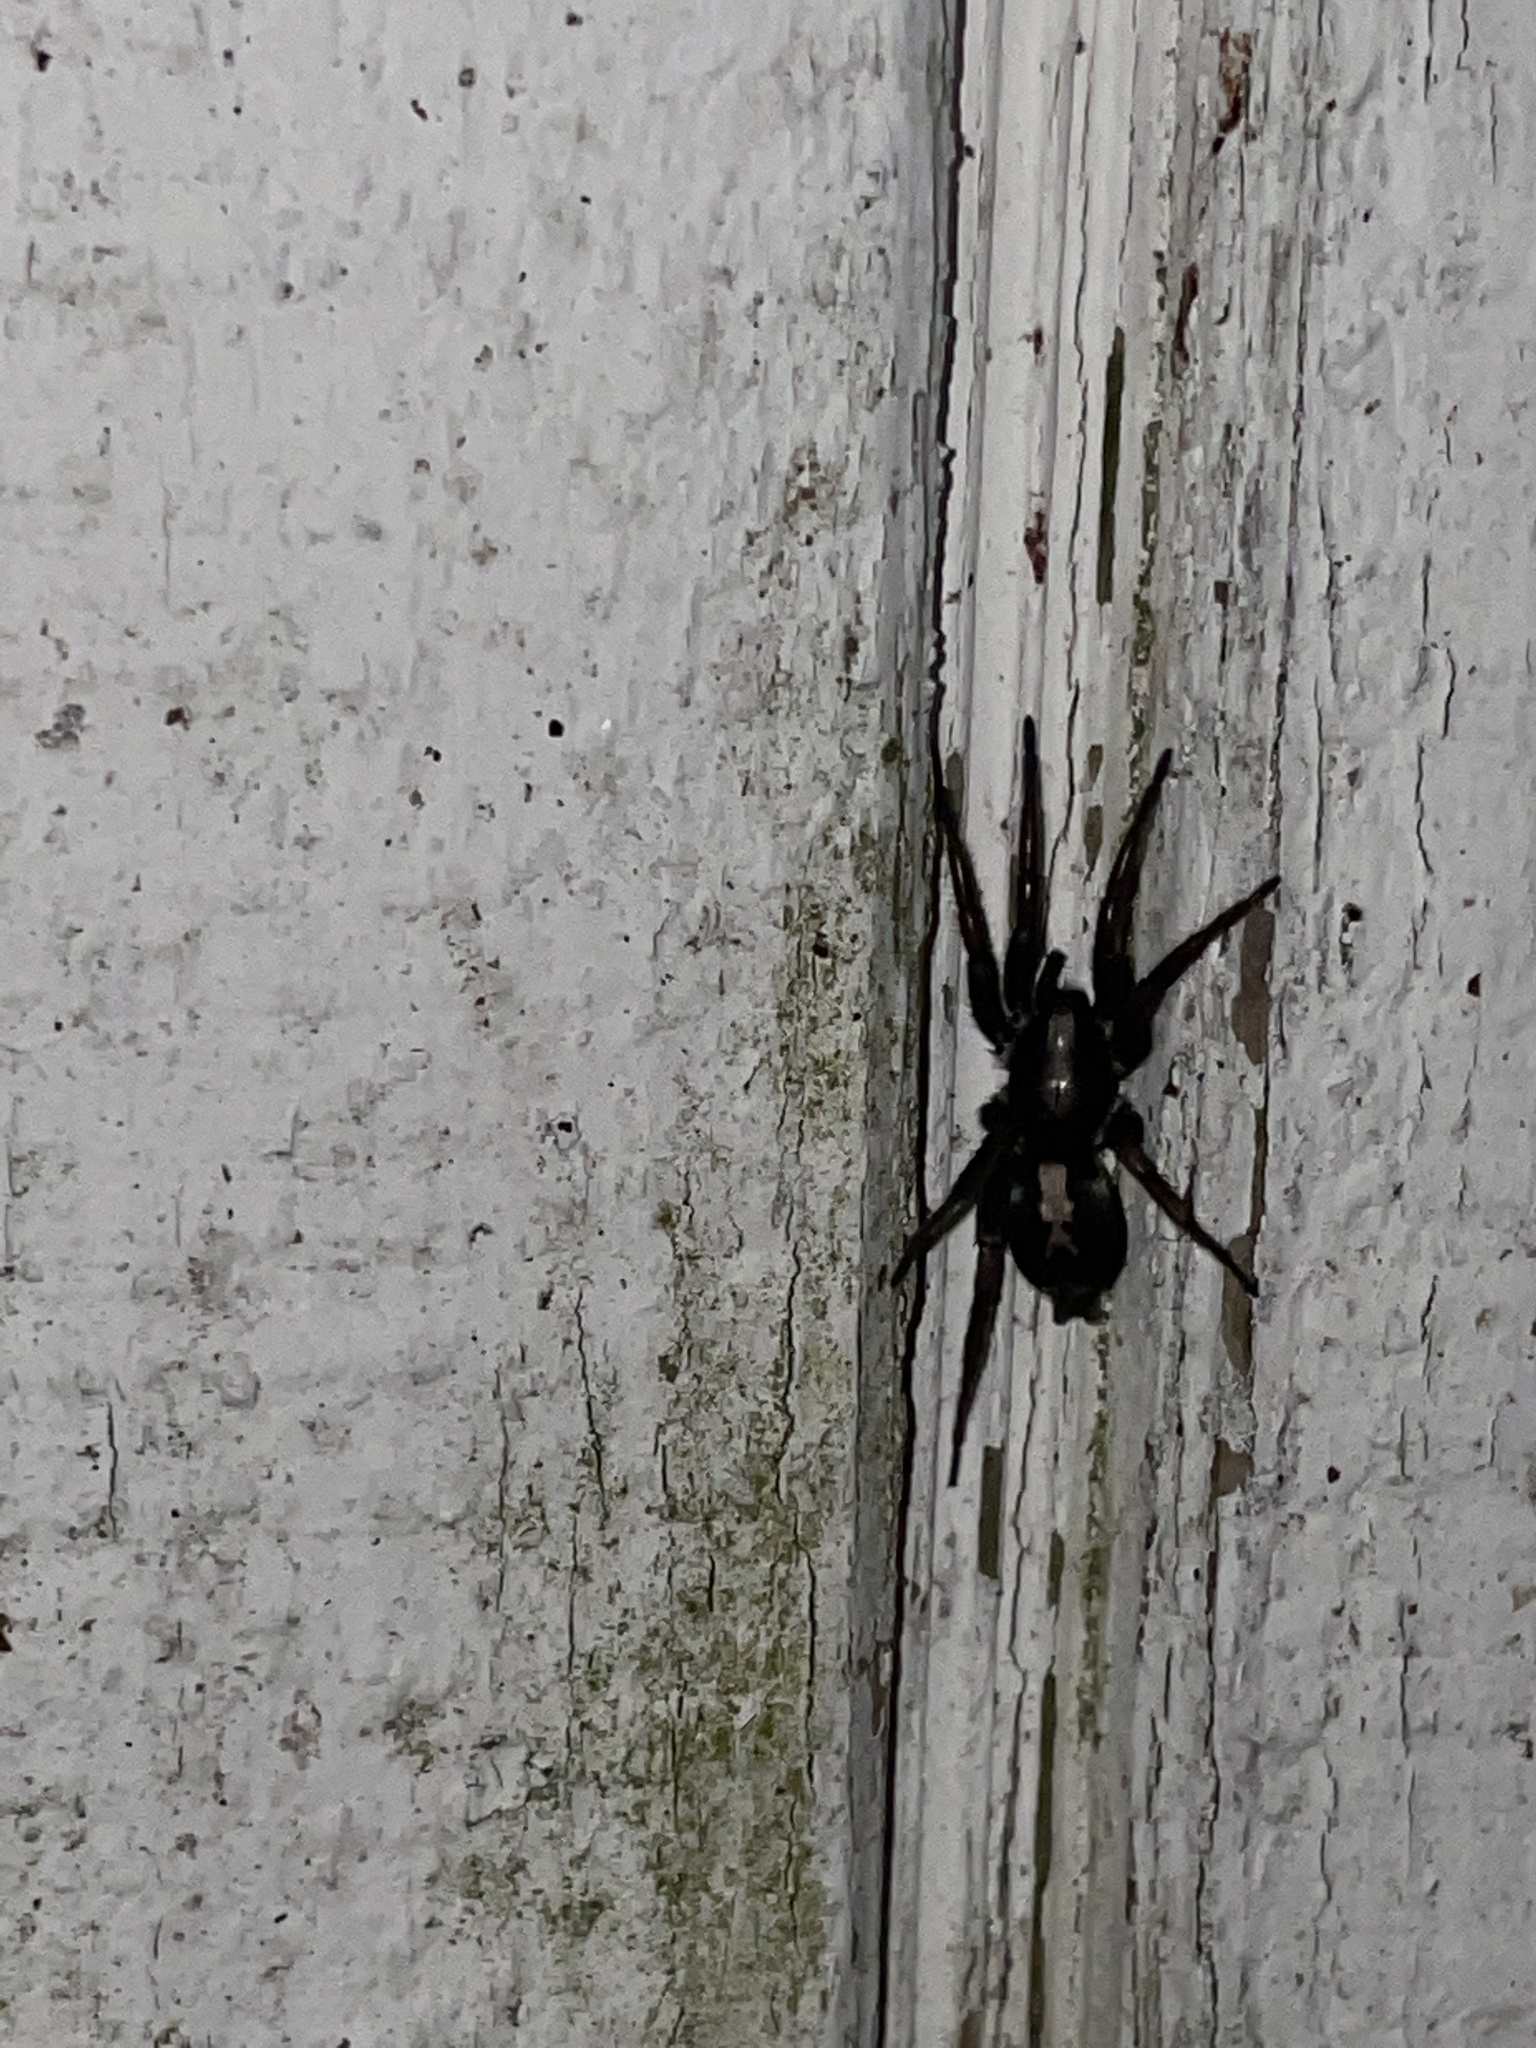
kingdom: Animalia
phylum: Arthropoda
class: Arachnida
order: Araneae
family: Gnaphosidae
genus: Herpyllus
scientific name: Herpyllus ecclesiasticus
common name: Eastern parson spider
